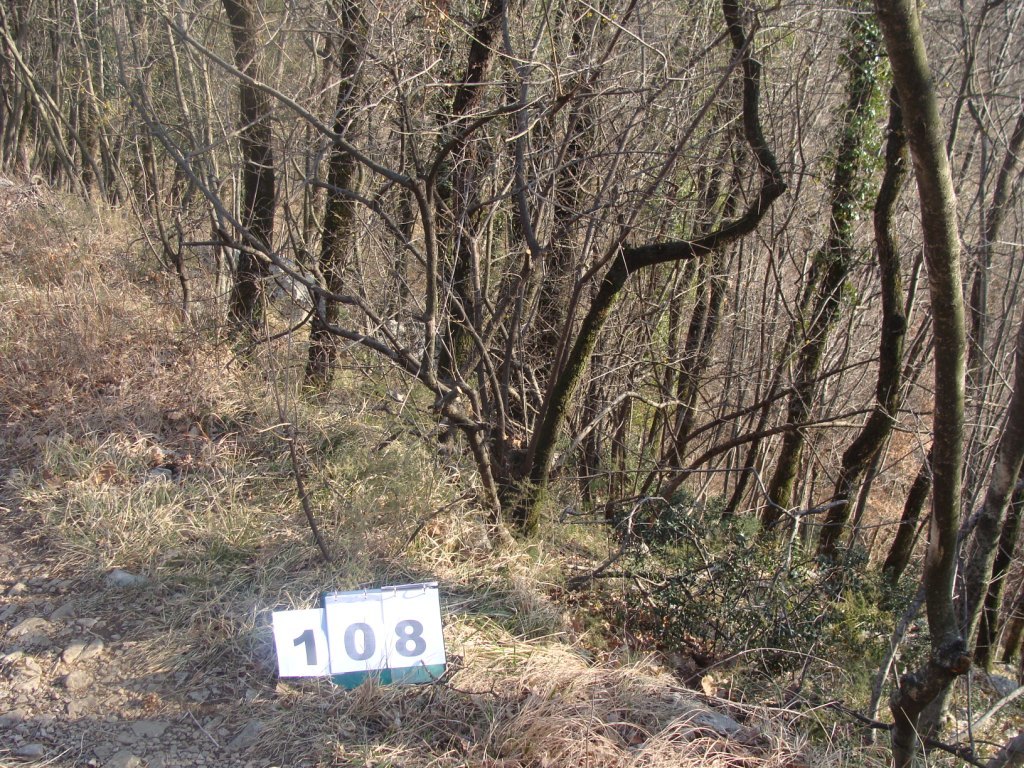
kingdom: Plantae
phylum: Tracheophyta
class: Magnoliopsida
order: Cornales
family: Cornaceae
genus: Cornus
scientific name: Cornus mas
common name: Cornelian-cherry
